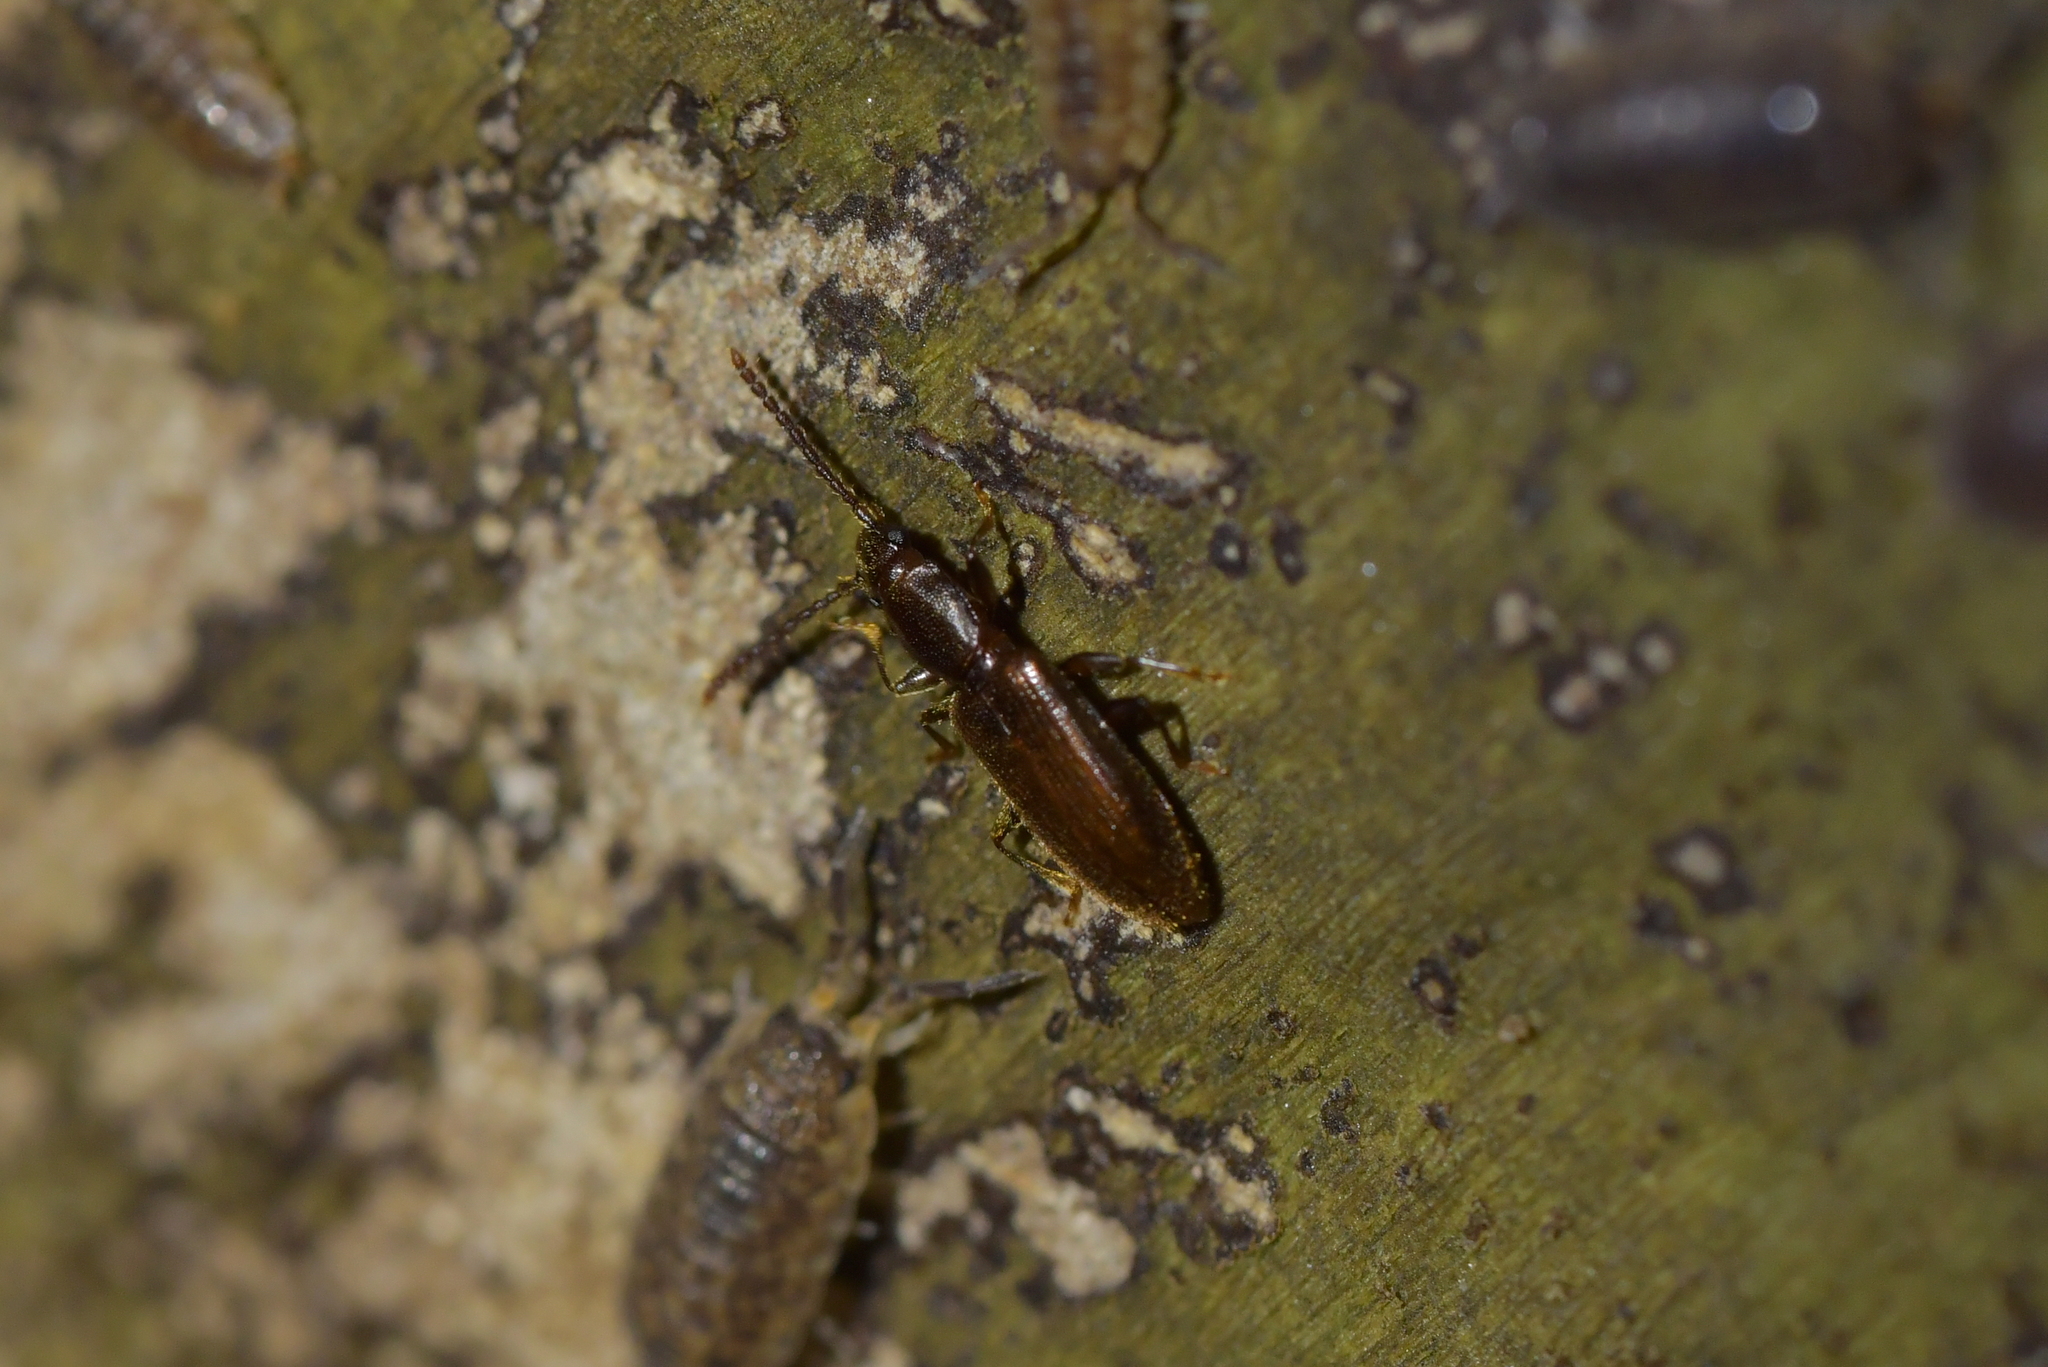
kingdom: Animalia
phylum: Arthropoda
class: Insecta
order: Coleoptera
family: Silvanidae
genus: Cryptamorpha
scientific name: Cryptamorpha brevicornis
